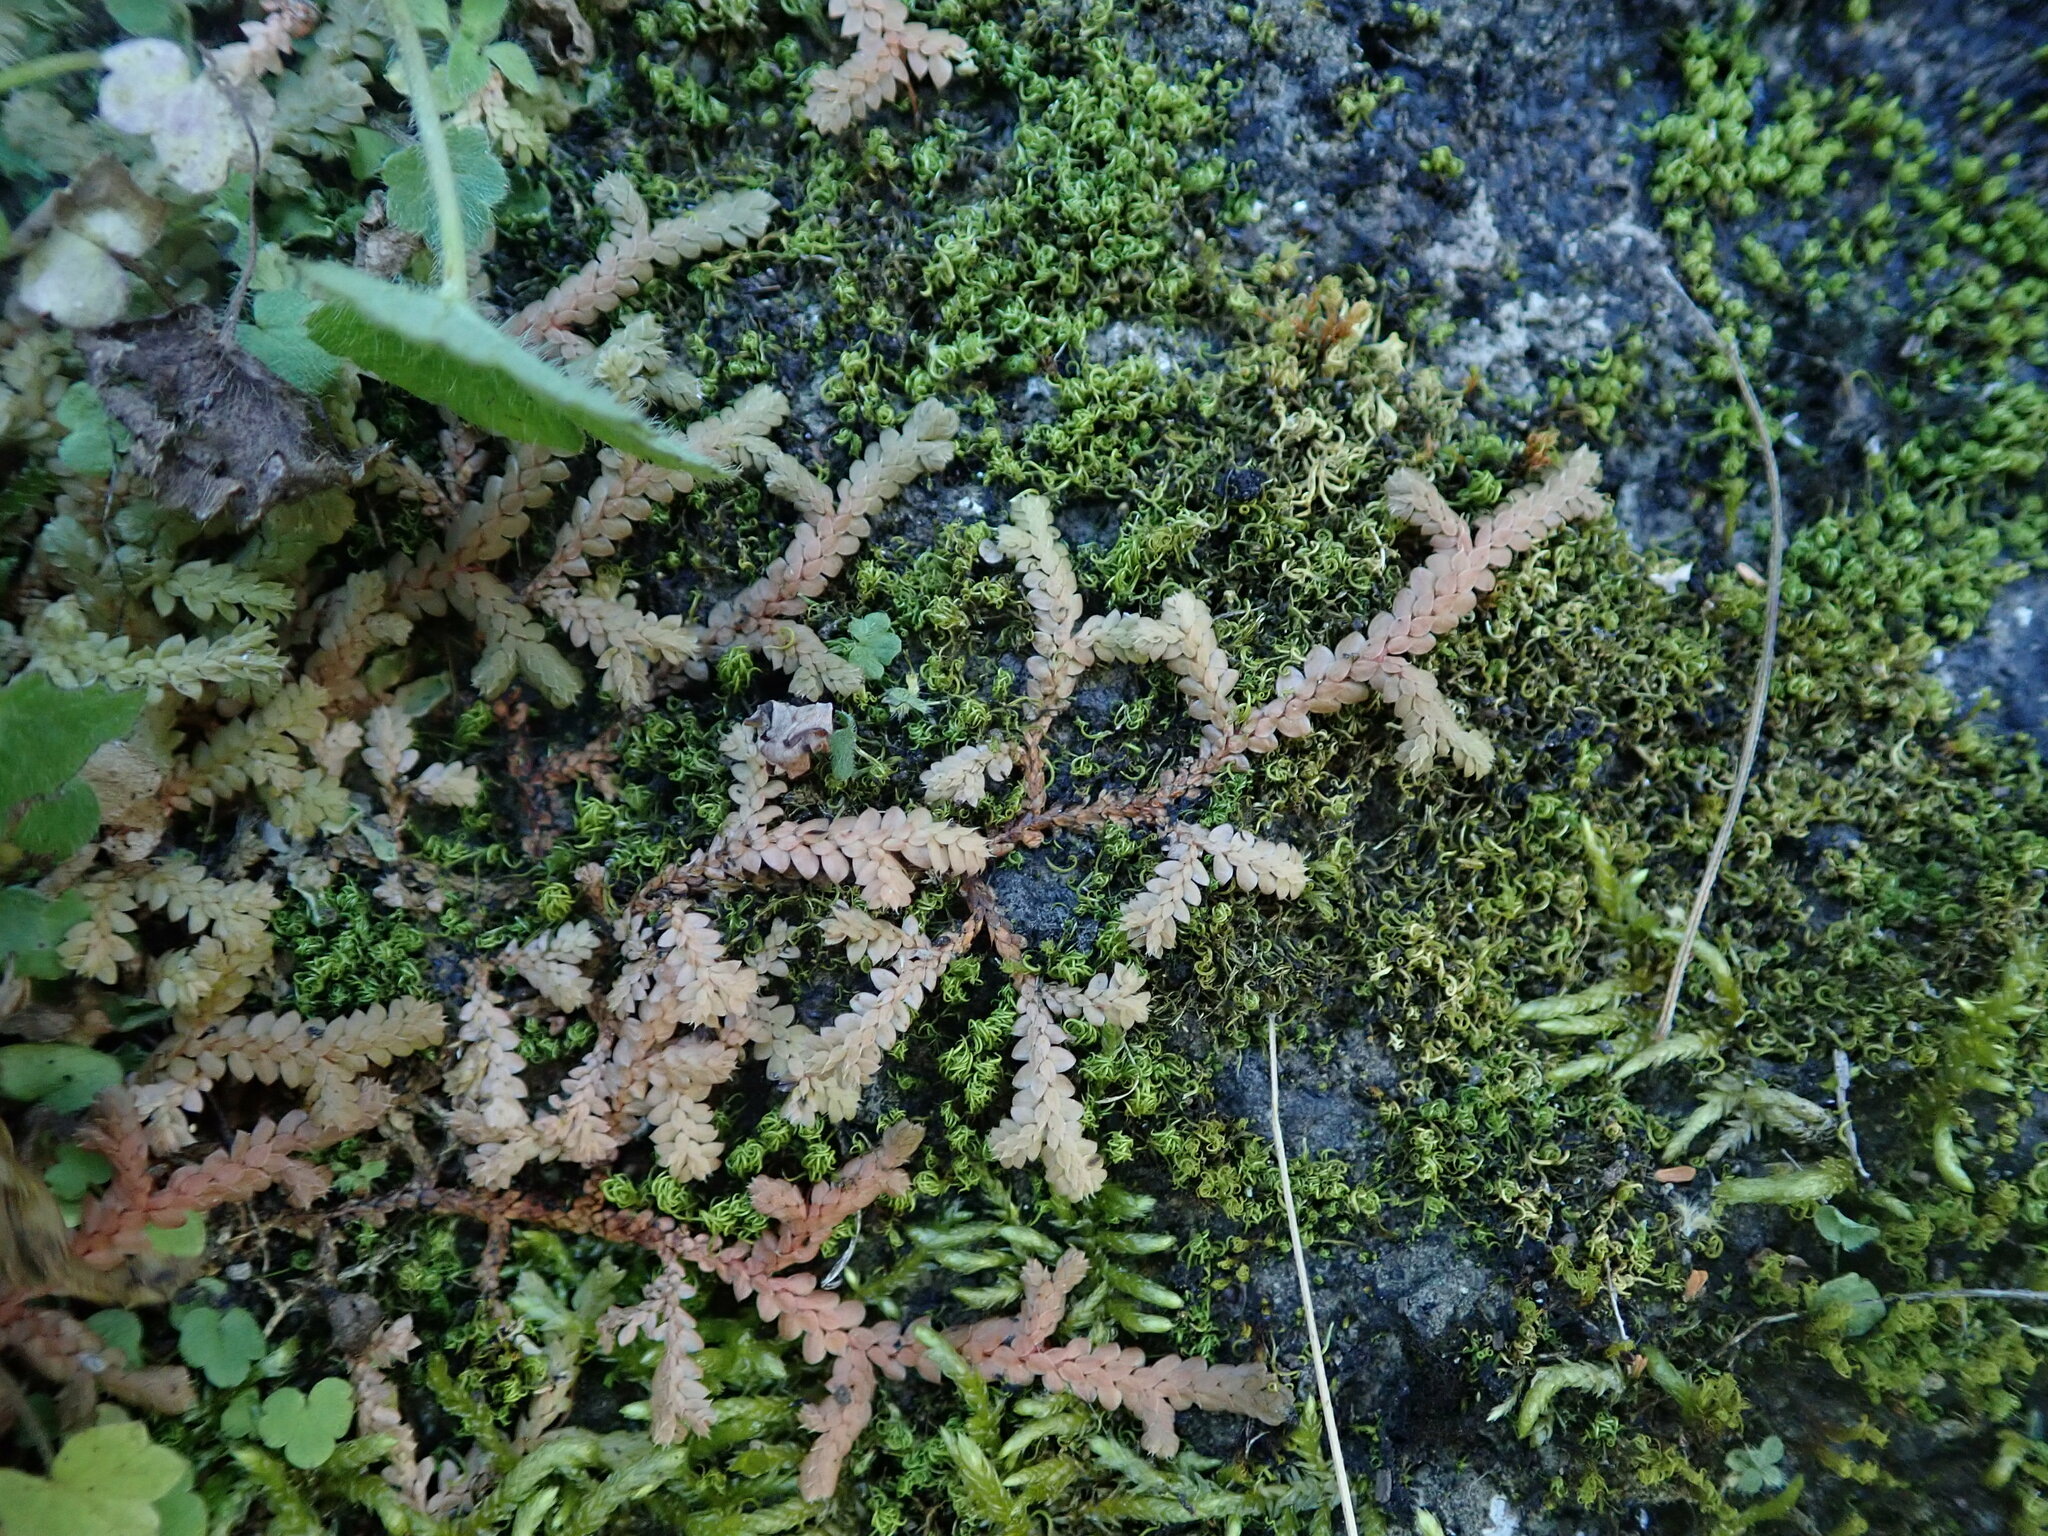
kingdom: Plantae
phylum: Tracheophyta
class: Lycopodiopsida
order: Selaginellales
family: Selaginellaceae
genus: Selaginella
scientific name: Selaginella denticulata
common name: Toothed-leaved clubmoss
